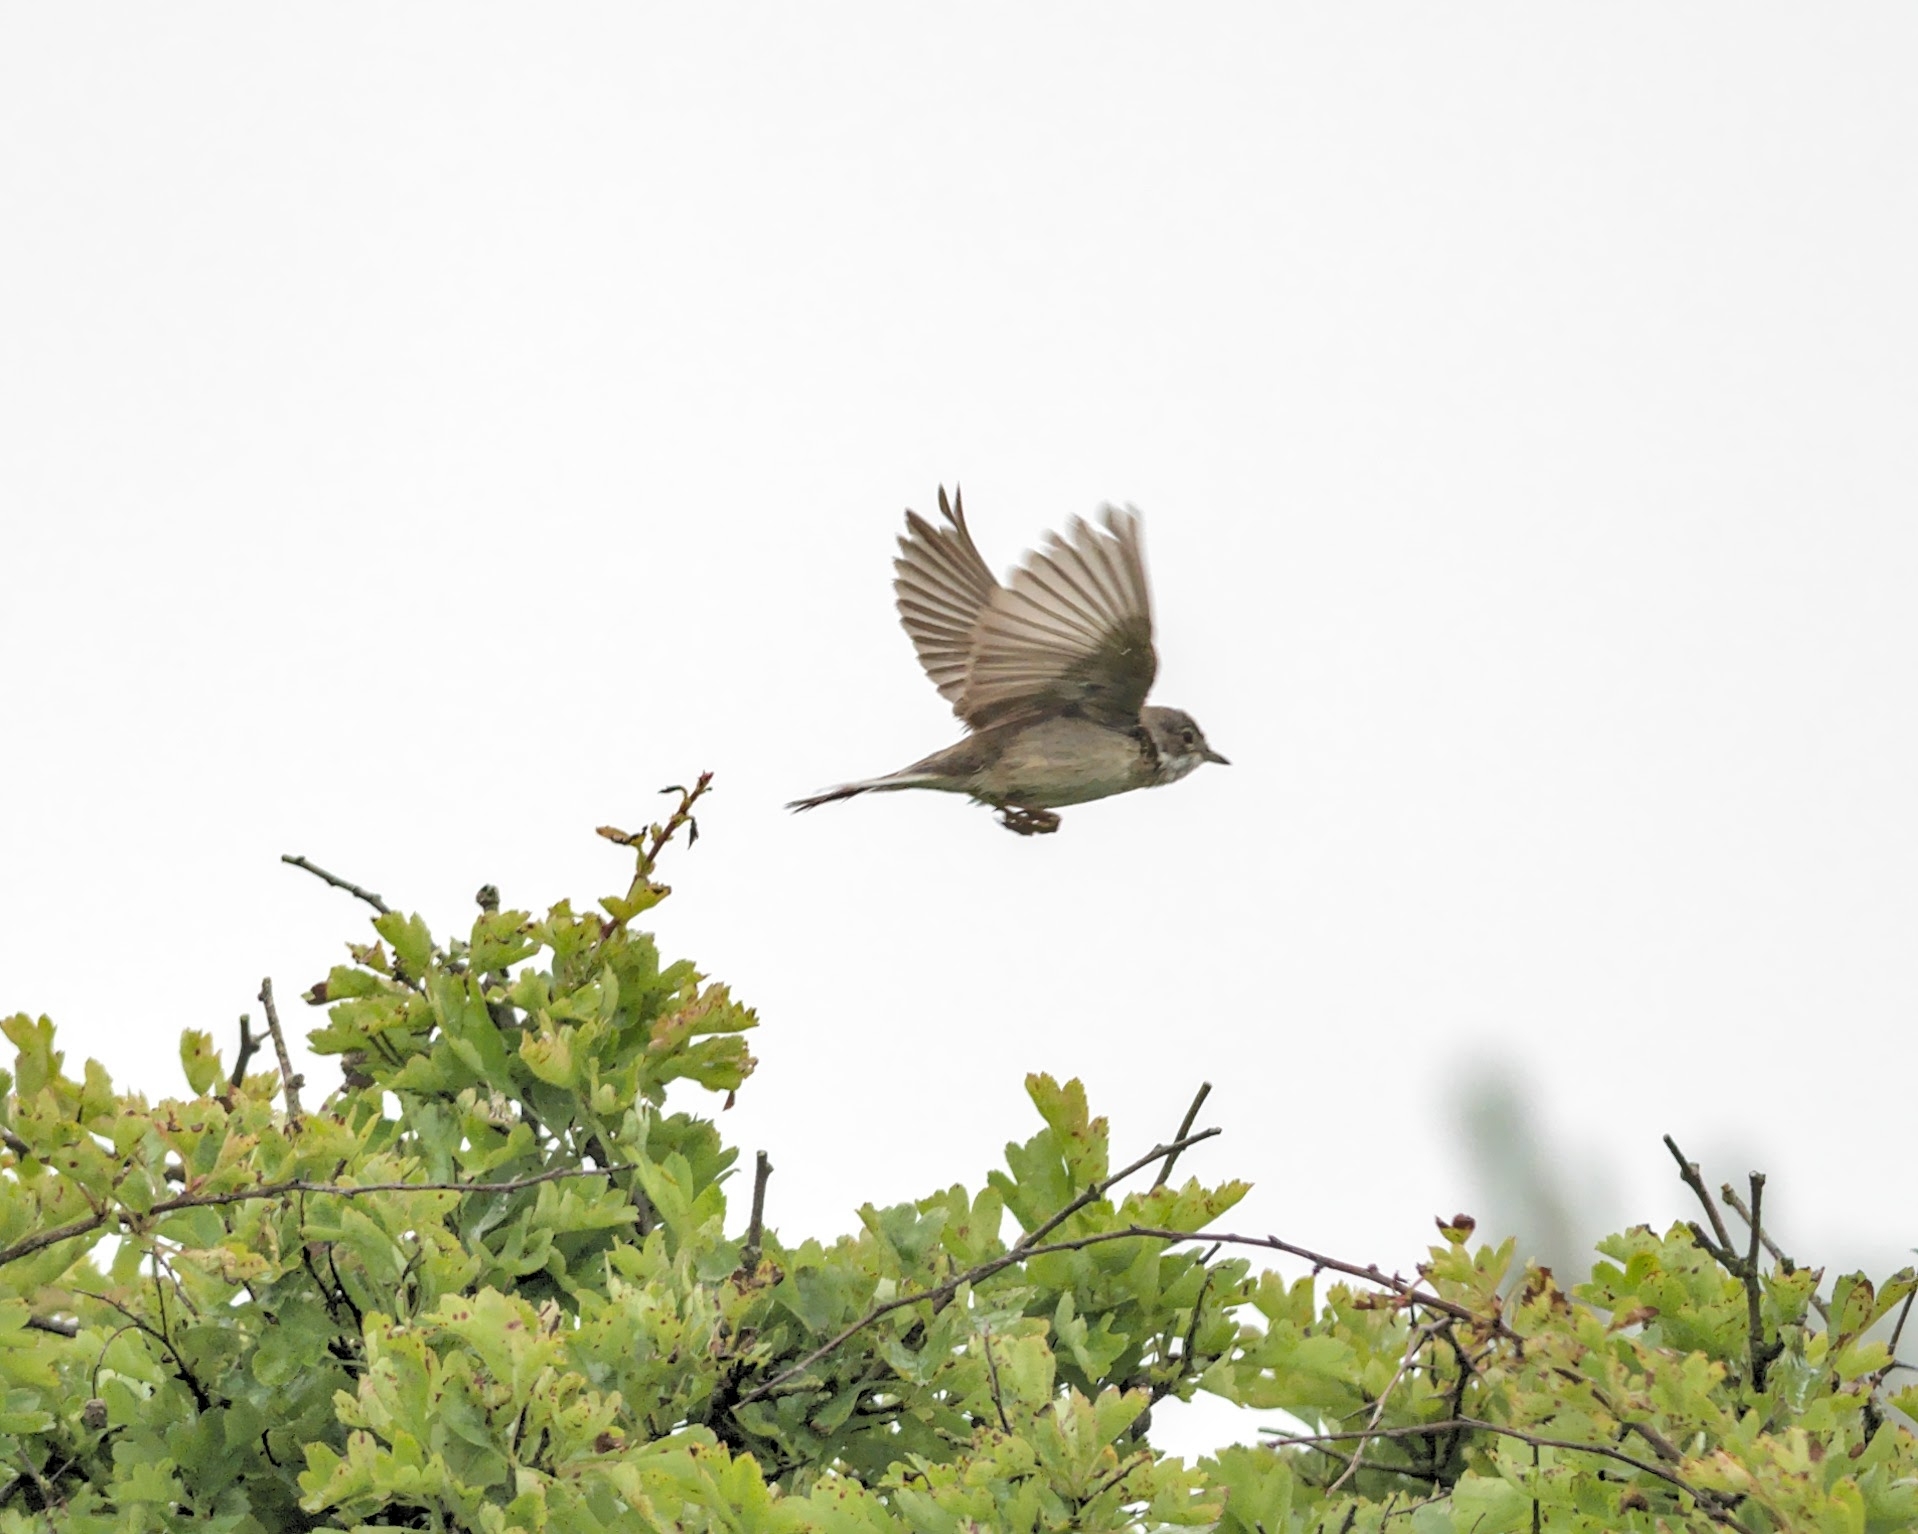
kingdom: Animalia
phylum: Chordata
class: Aves
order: Passeriformes
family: Sylviidae
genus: Sylvia
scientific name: Sylvia communis
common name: Common whitethroat
